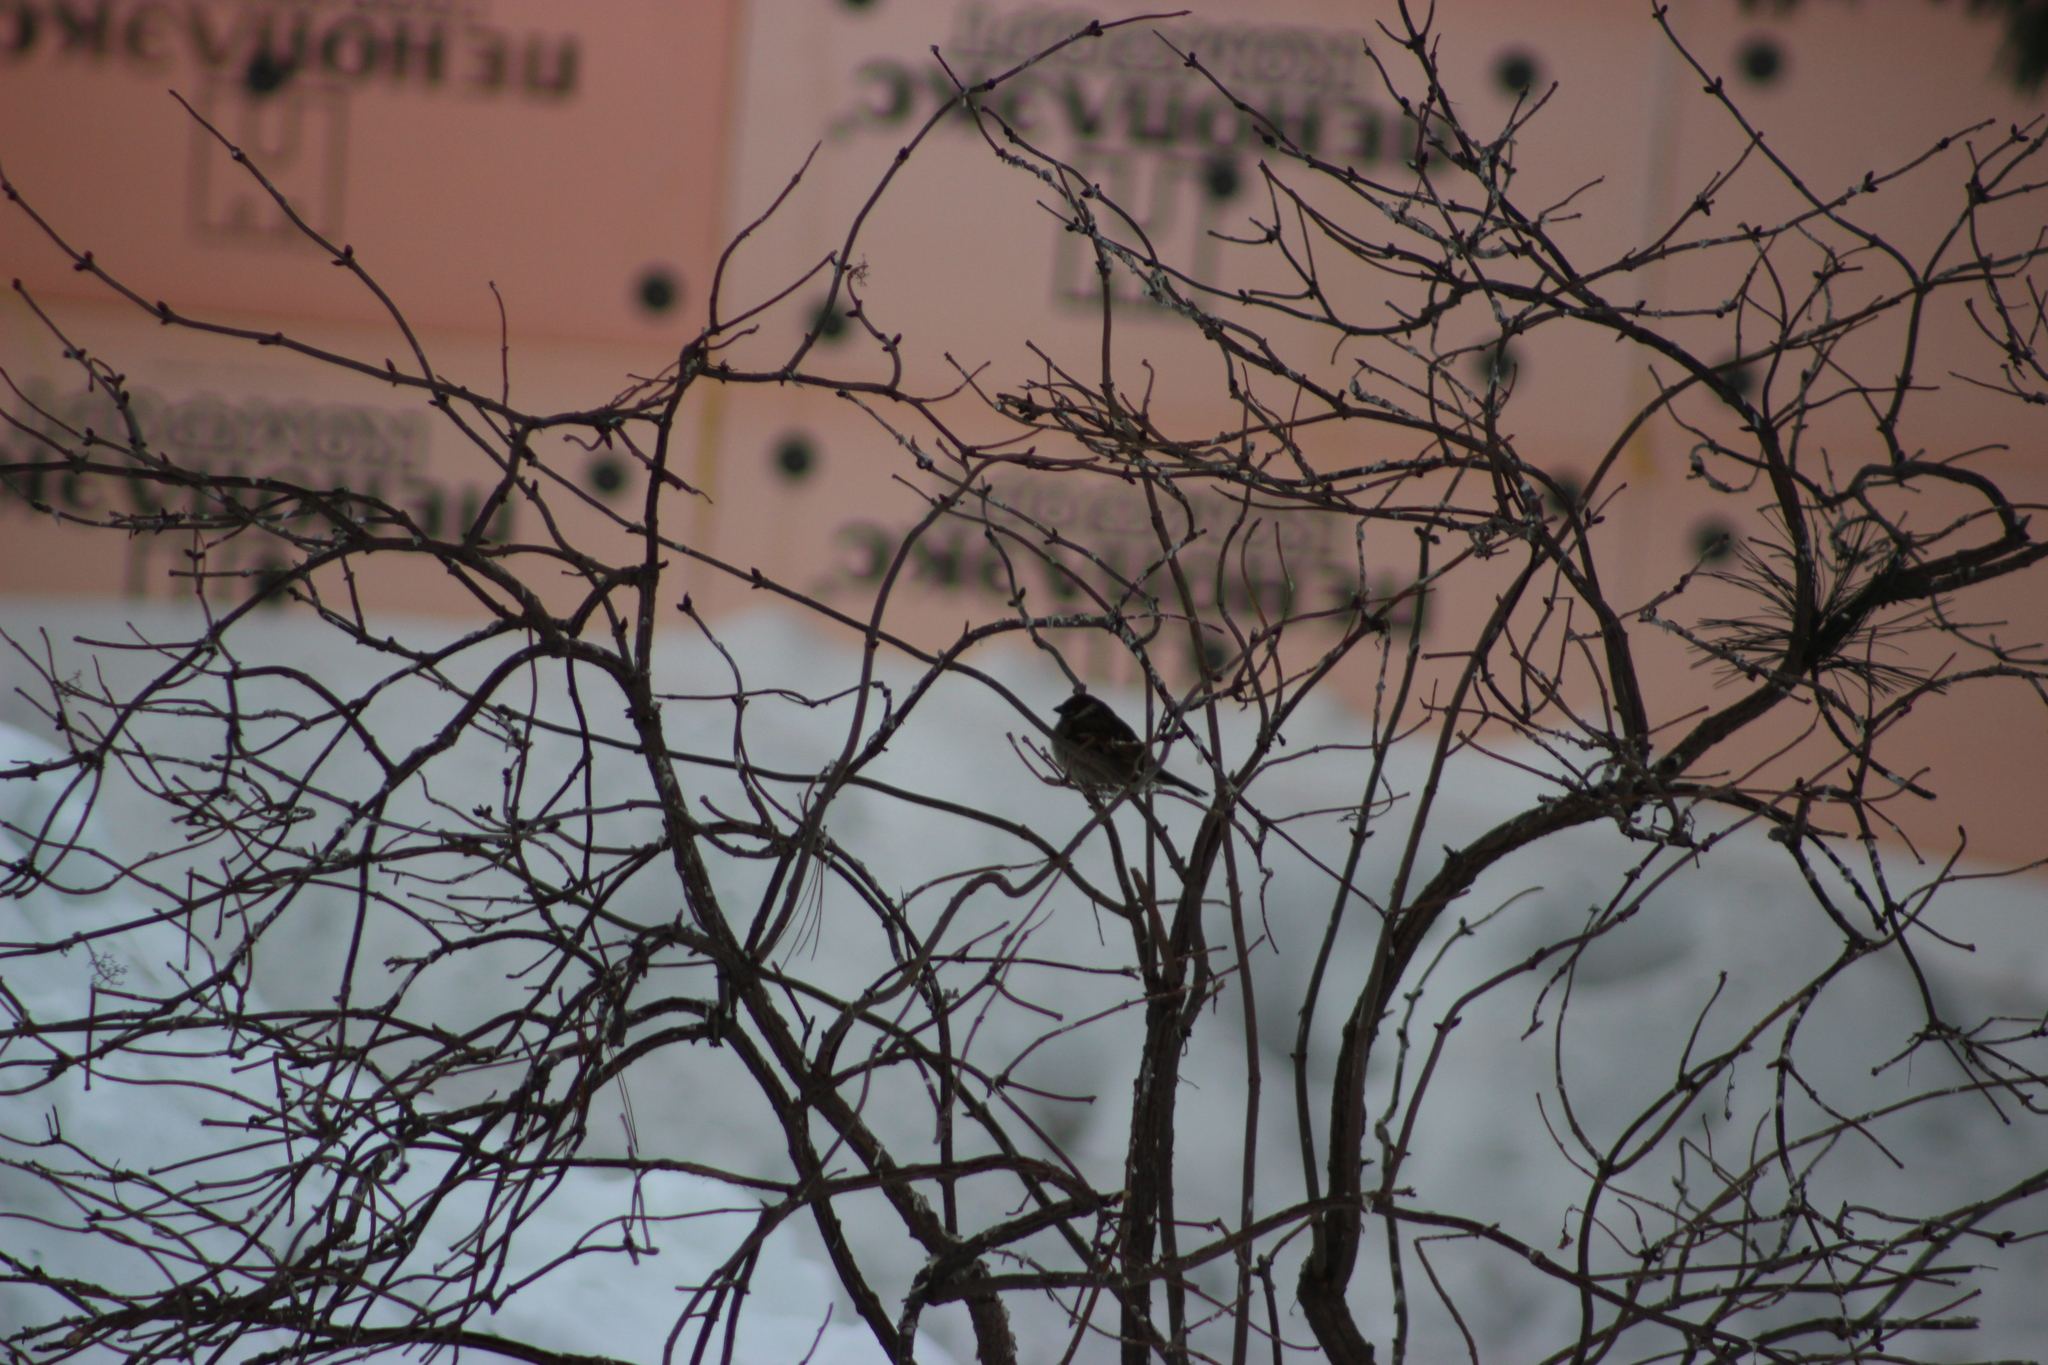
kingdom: Animalia
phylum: Chordata
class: Aves
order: Passeriformes
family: Passeridae
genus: Passer
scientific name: Passer montanus
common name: Eurasian tree sparrow
